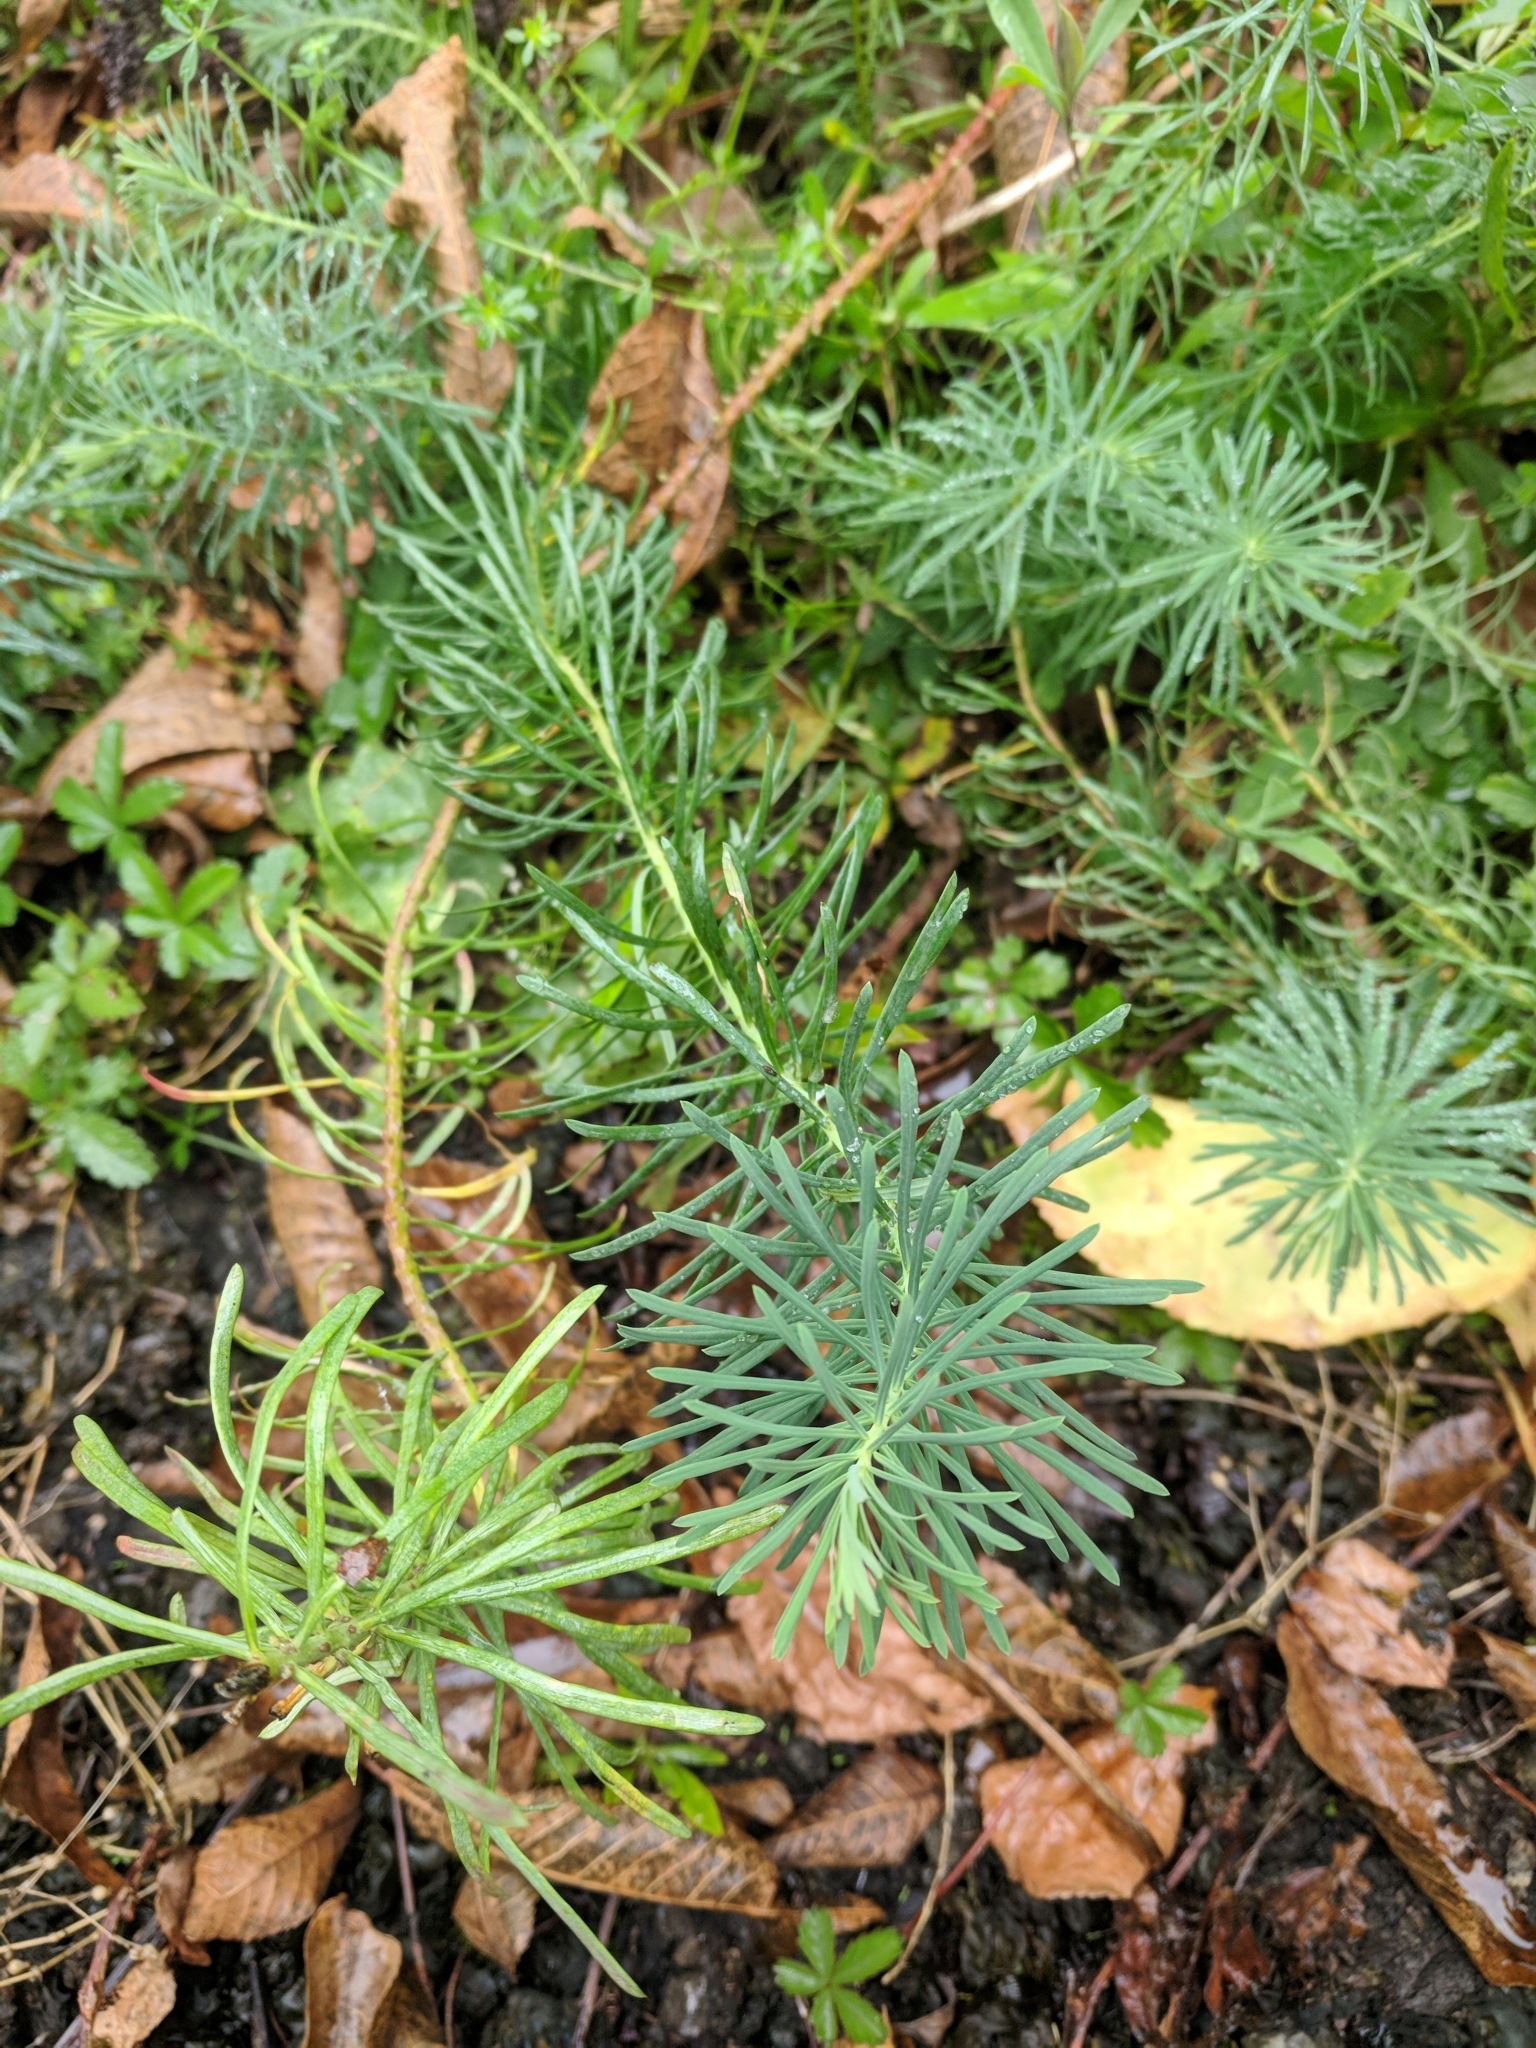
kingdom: Plantae
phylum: Tracheophyta
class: Magnoliopsida
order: Malpighiales
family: Euphorbiaceae
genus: Euphorbia
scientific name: Euphorbia cyparissias
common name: Cypress spurge
